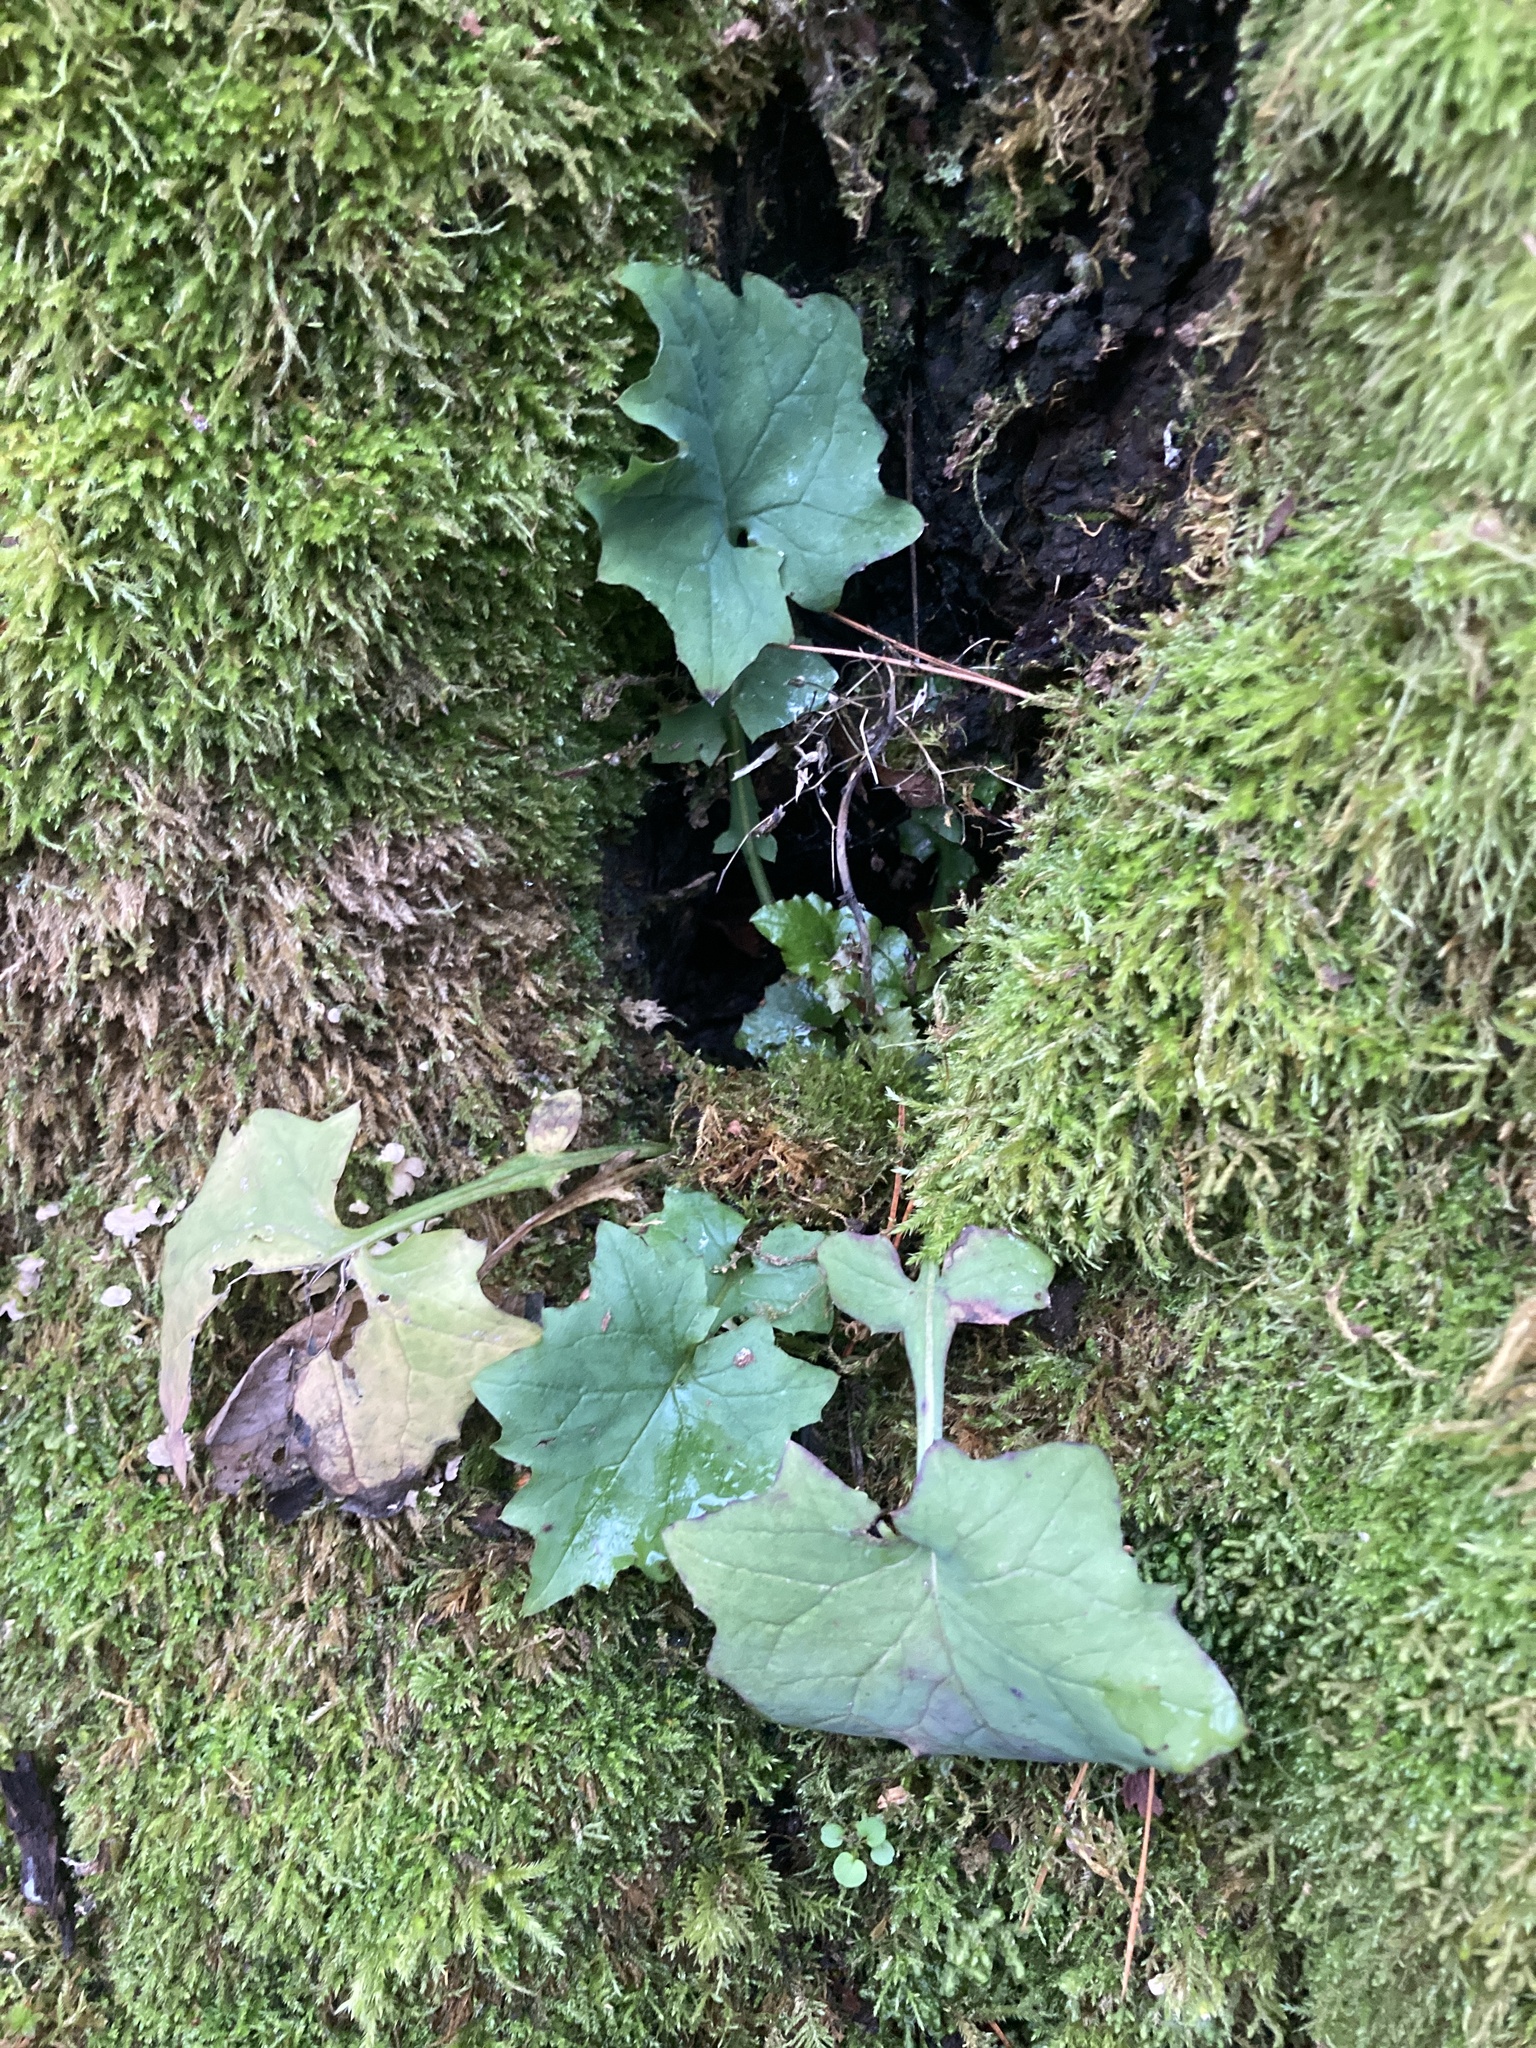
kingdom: Plantae
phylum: Tracheophyta
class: Magnoliopsida
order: Asterales
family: Asteraceae
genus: Mycelis
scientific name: Mycelis muralis
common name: Wall lettuce
